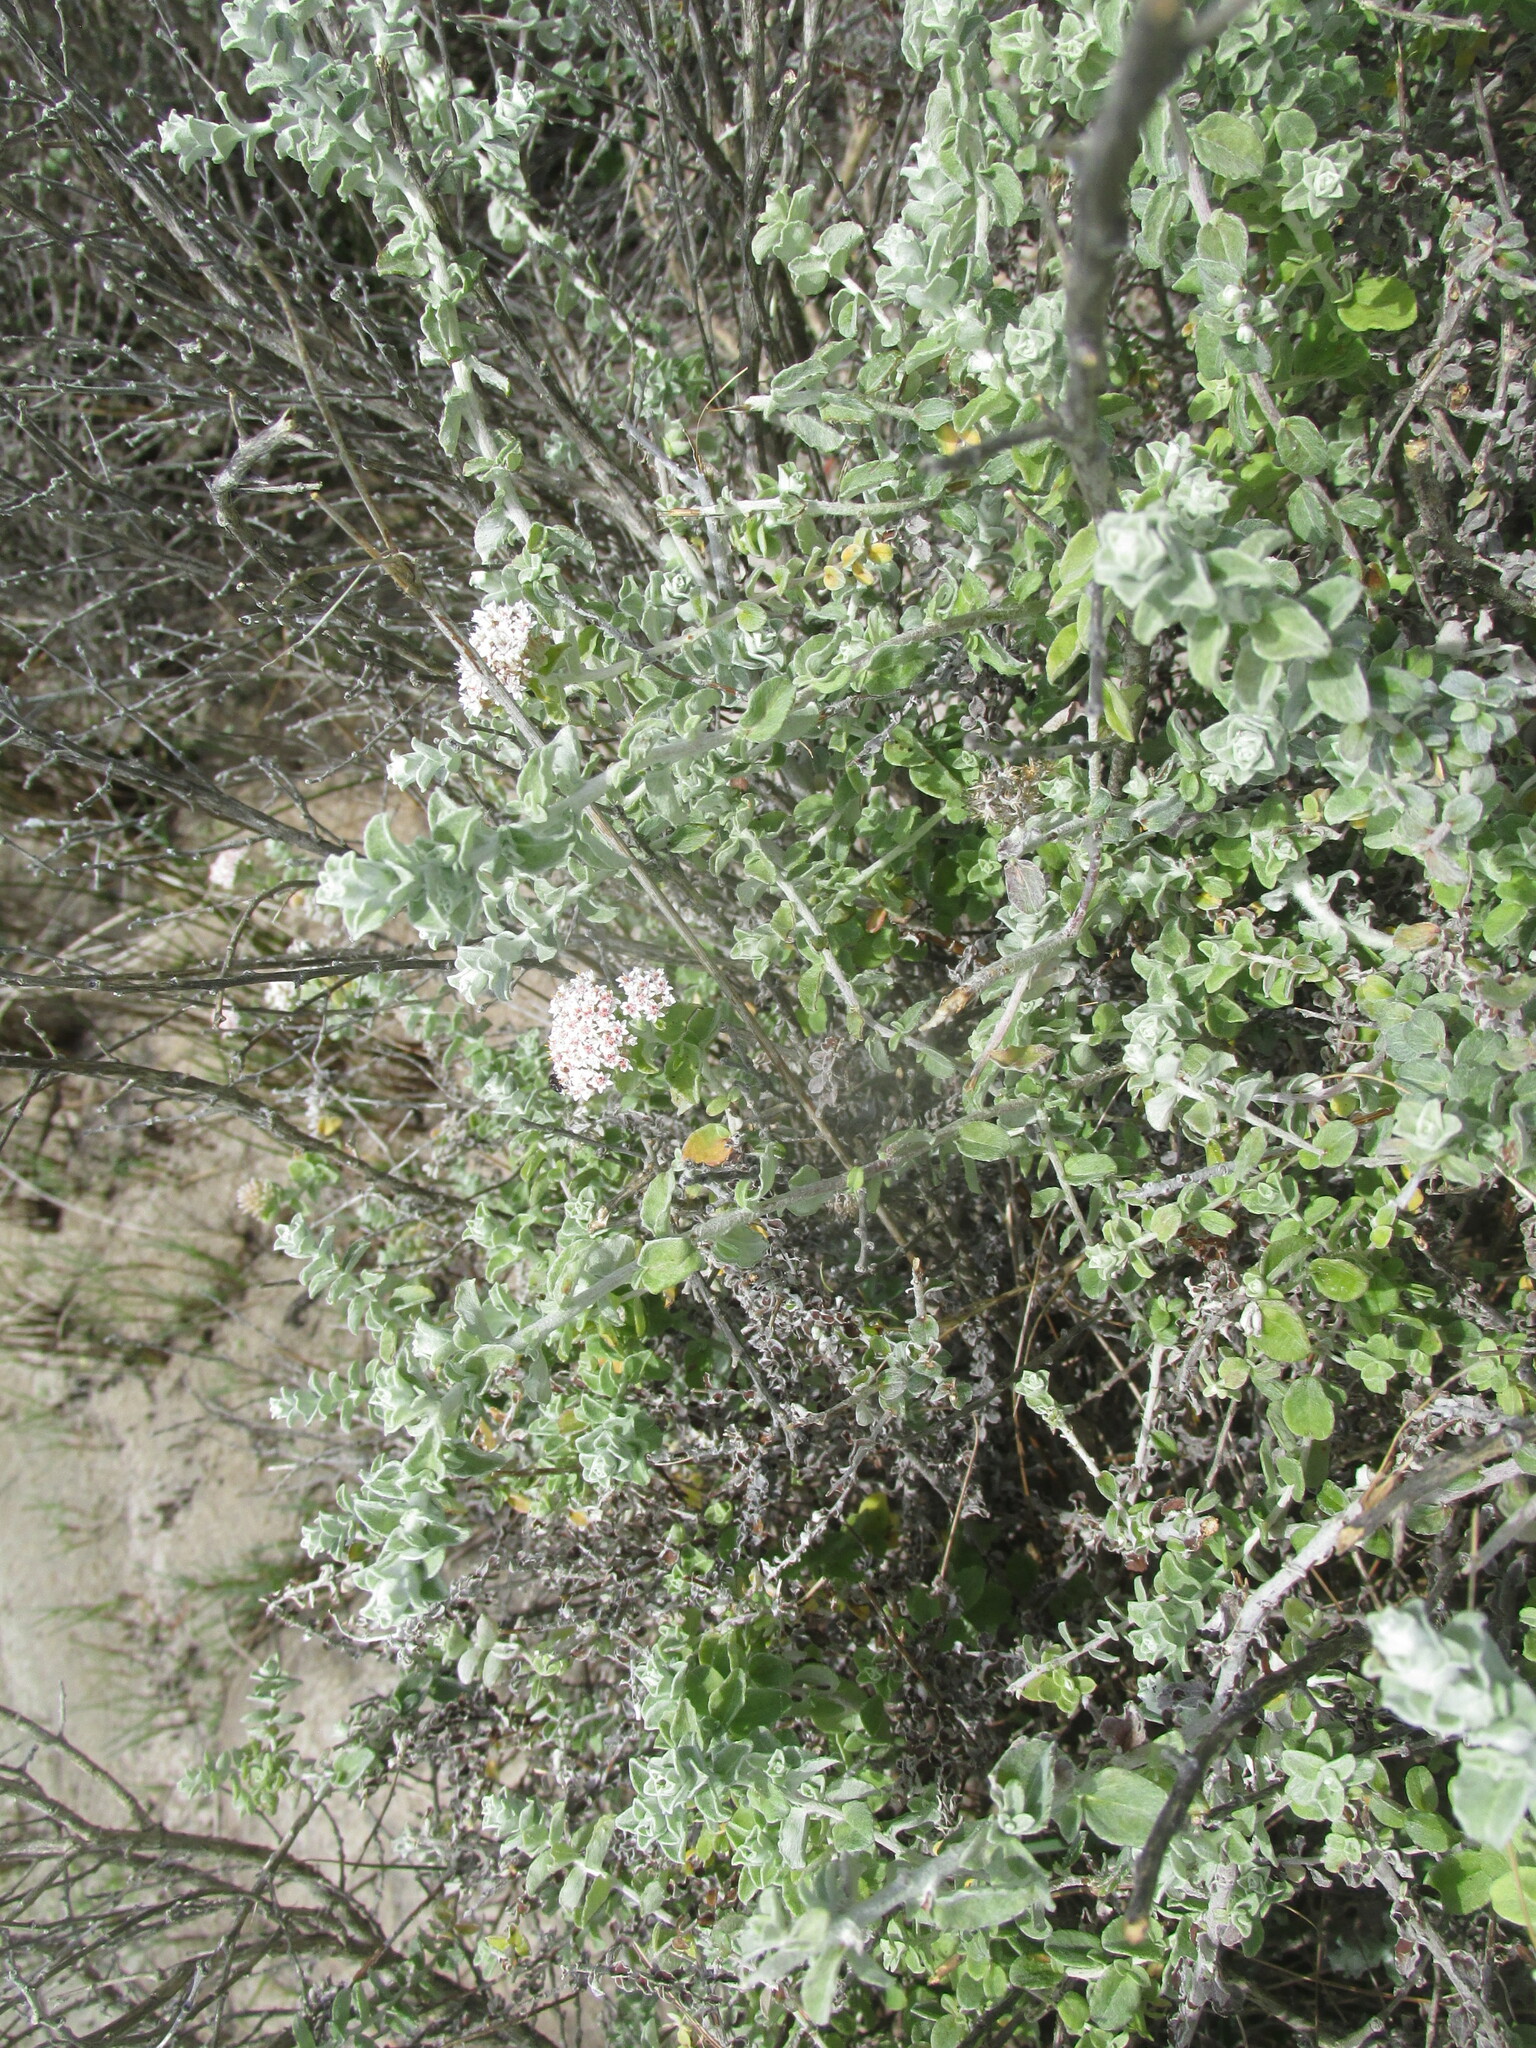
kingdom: Plantae
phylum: Tracheophyta
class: Magnoliopsida
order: Asterales
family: Asteraceae
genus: Plecostachys
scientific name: Plecostachys serpyllifolia
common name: Petite licorice
